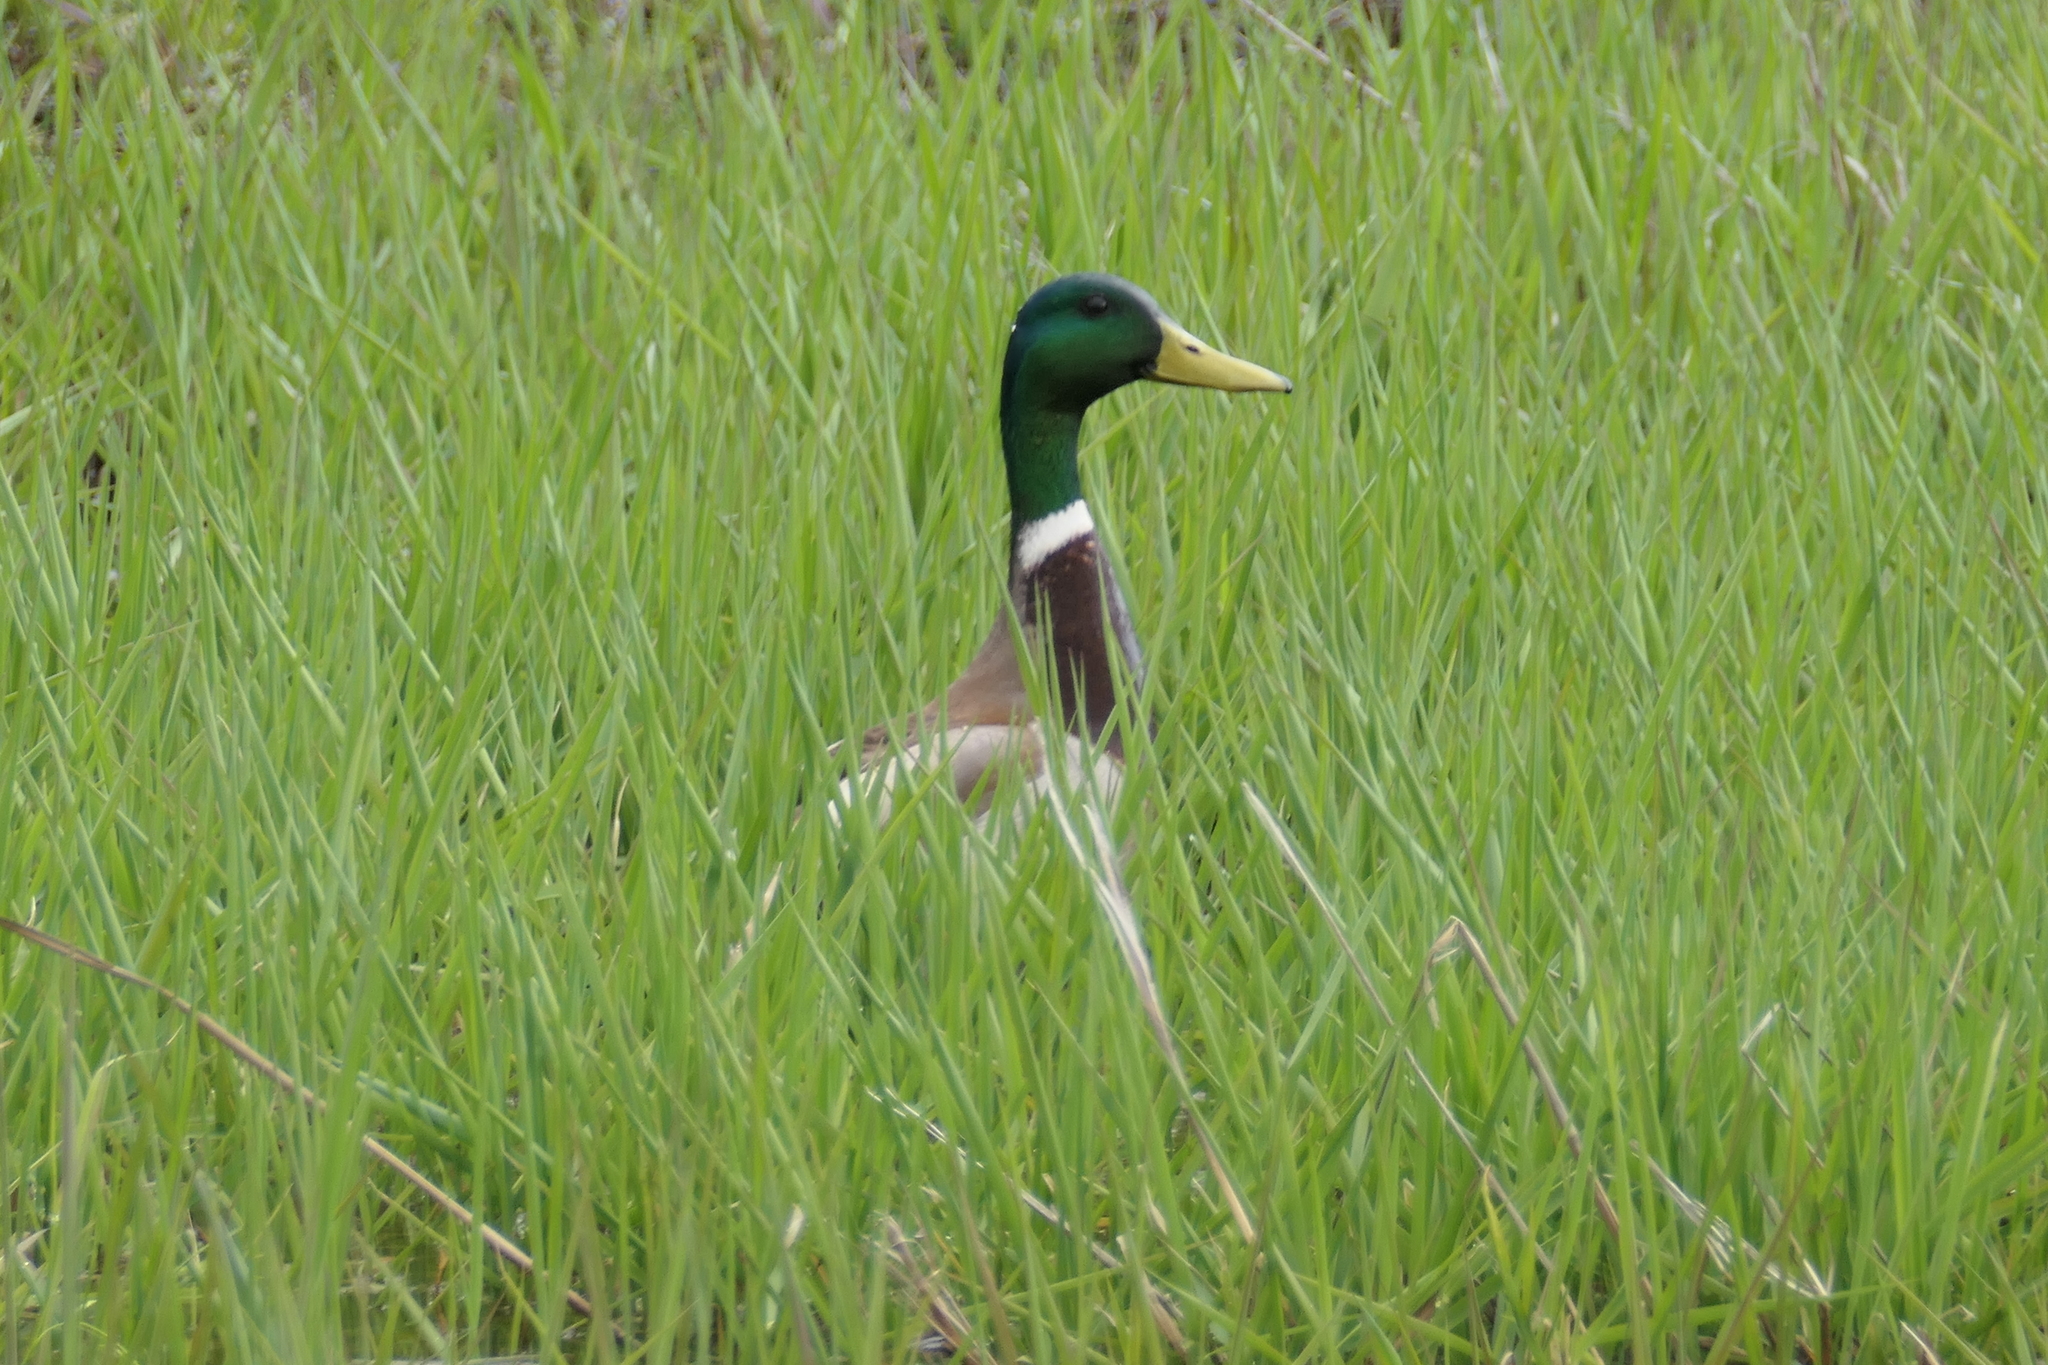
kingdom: Animalia
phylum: Chordata
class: Aves
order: Anseriformes
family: Anatidae
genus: Anas
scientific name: Anas platyrhynchos
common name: Mallard
